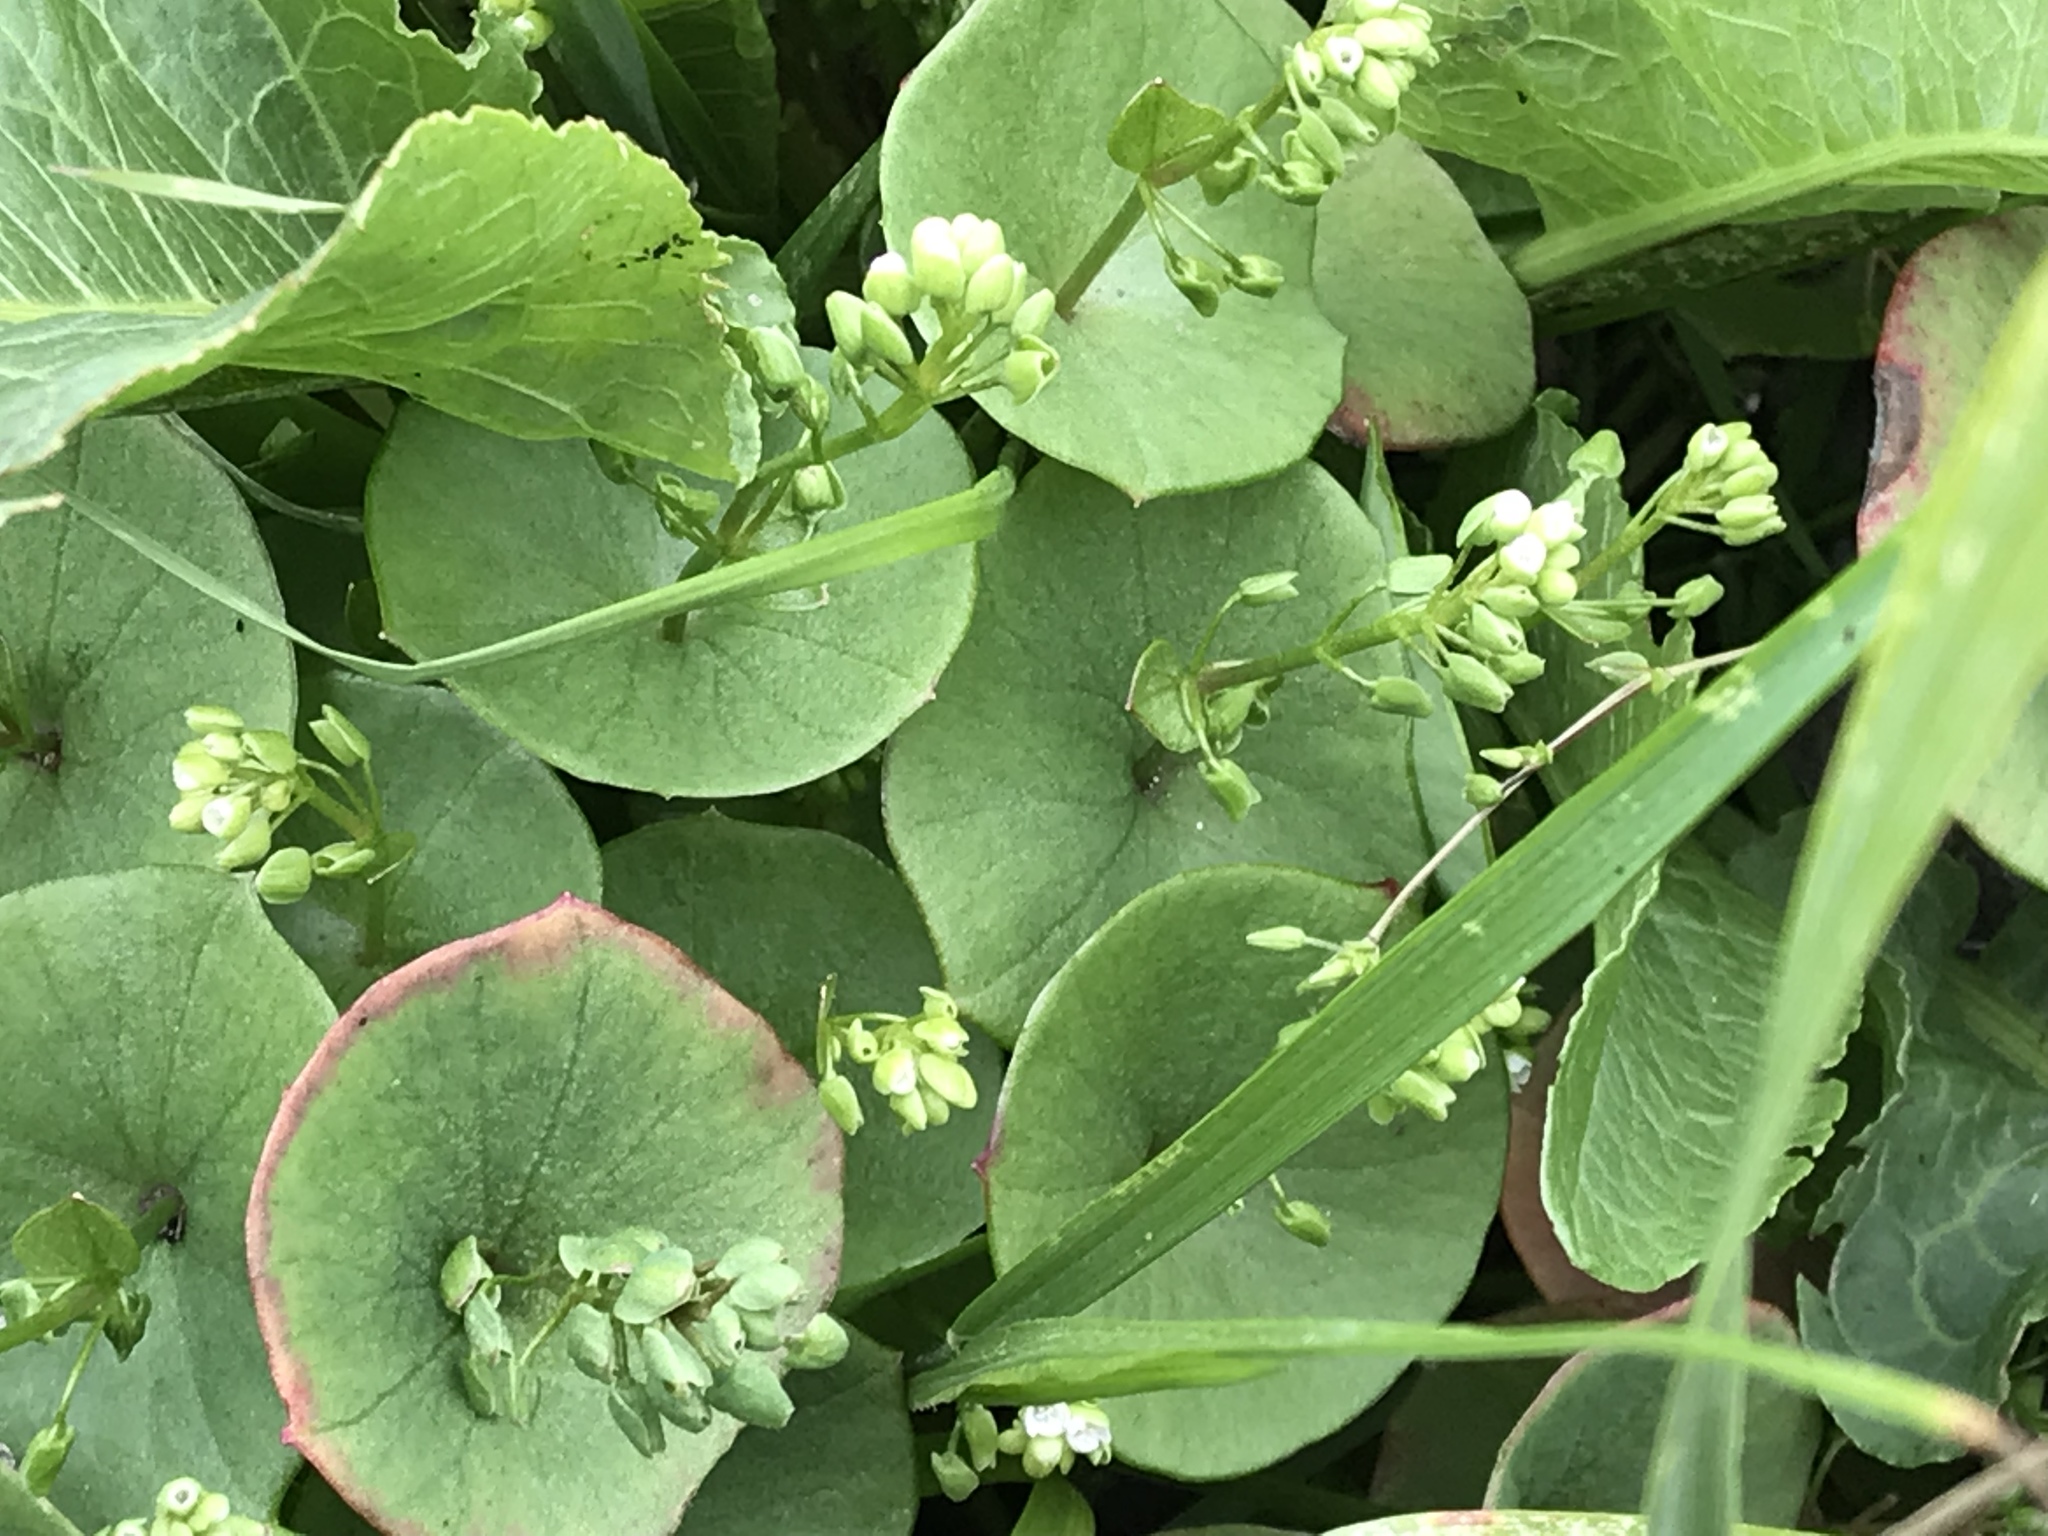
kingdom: Plantae
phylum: Tracheophyta
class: Magnoliopsida
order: Caryophyllales
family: Montiaceae
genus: Claytonia
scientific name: Claytonia perfoliata
